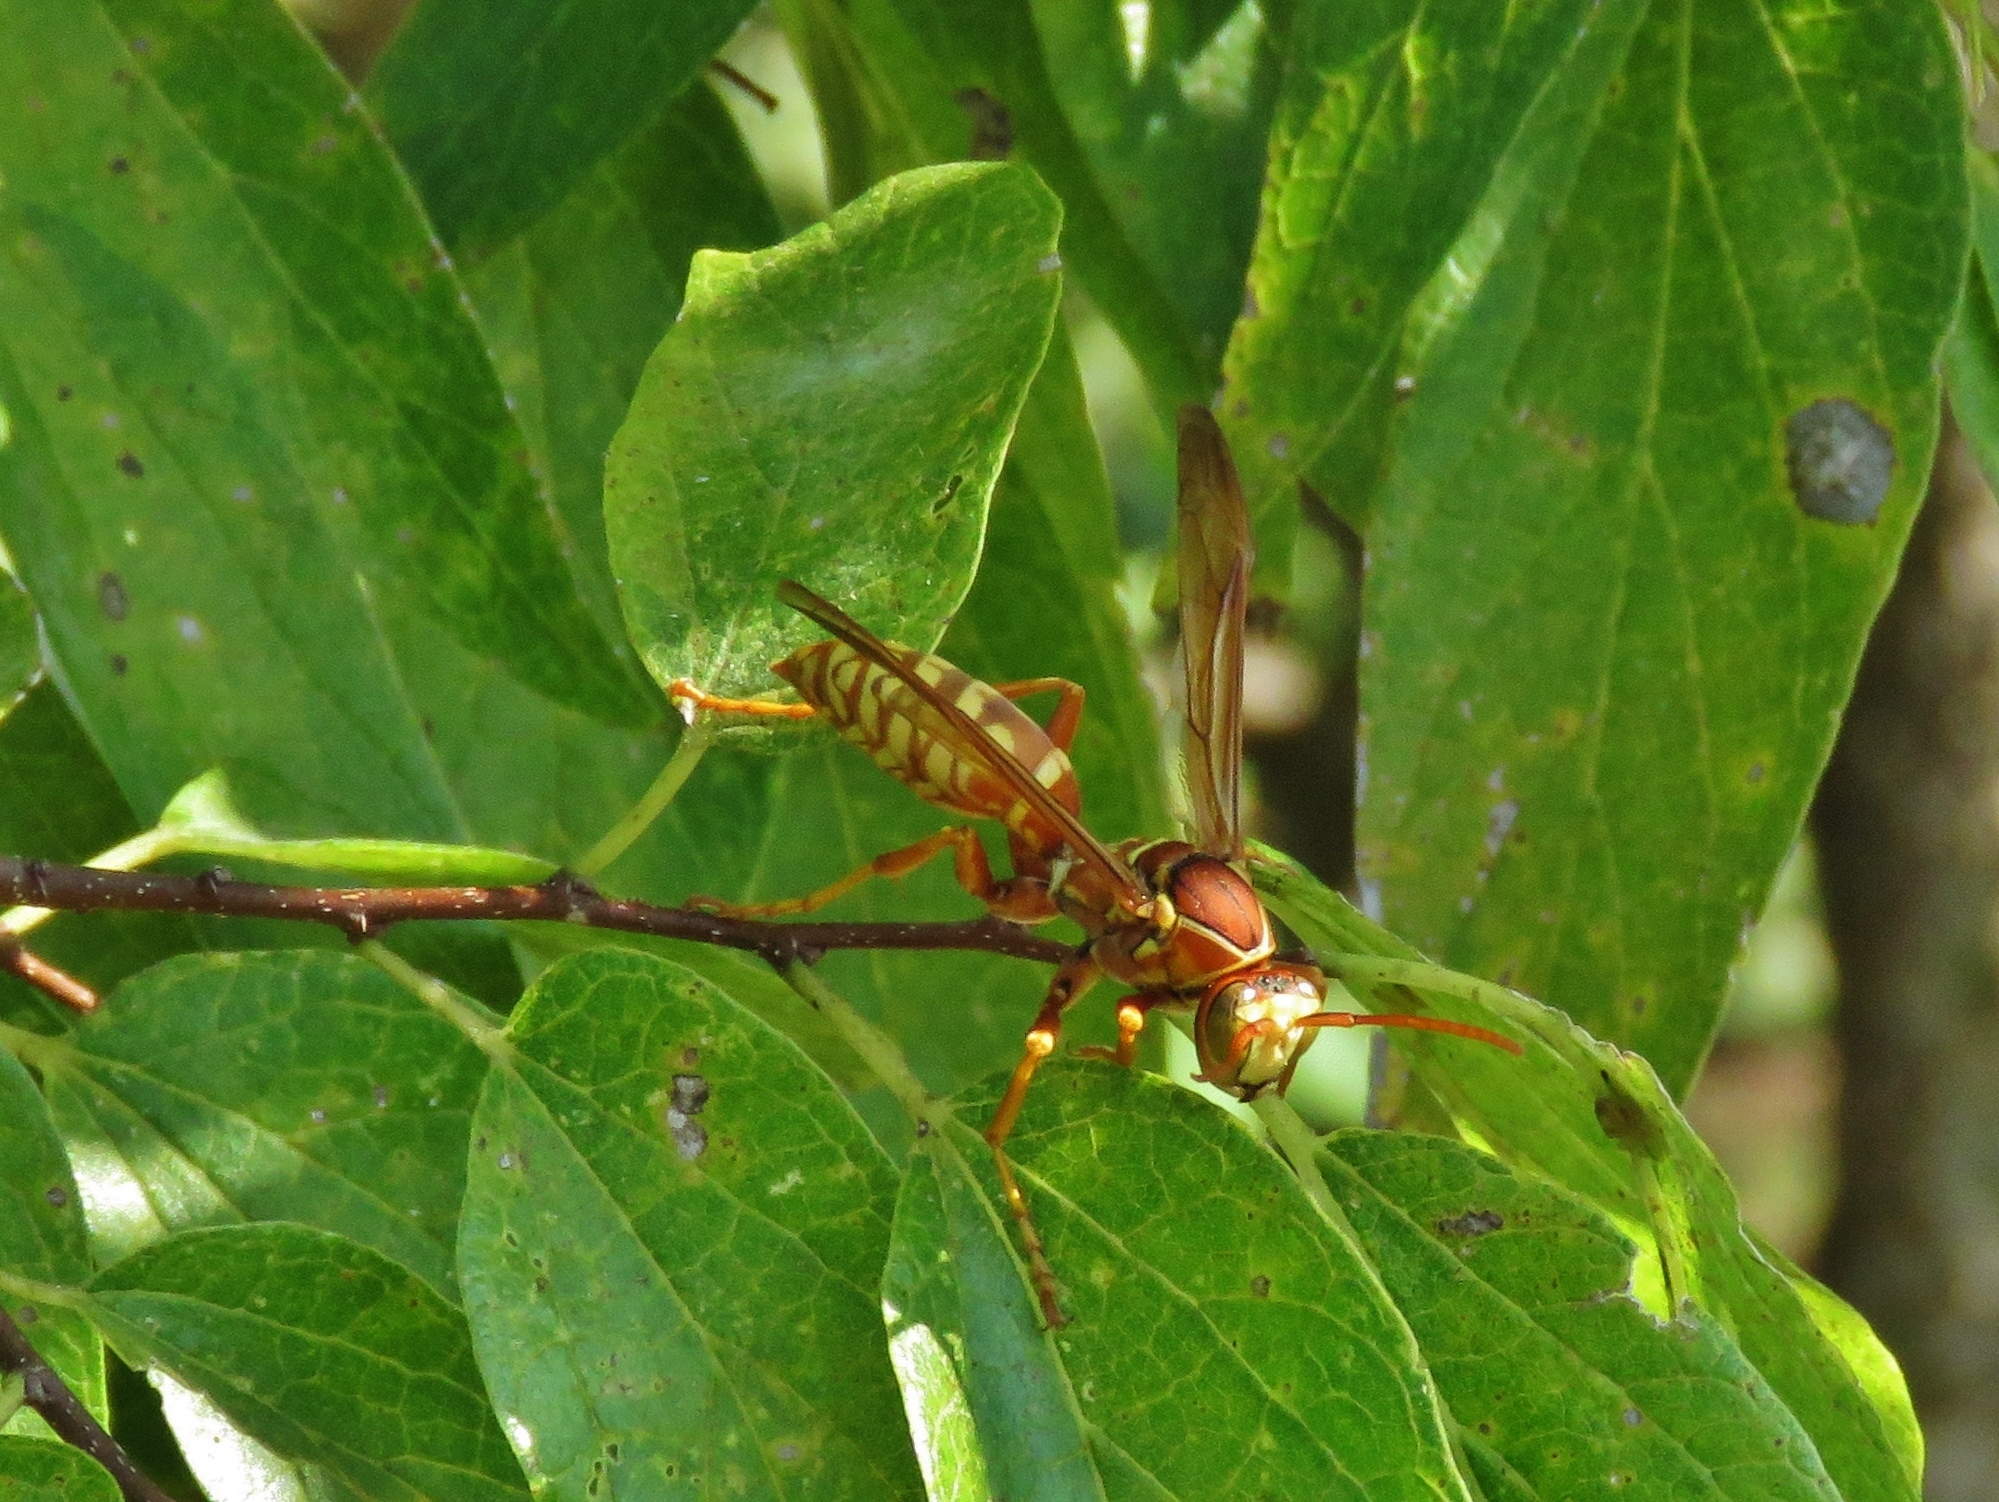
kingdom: Animalia
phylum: Arthropoda
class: Insecta
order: Hymenoptera
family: Eumenidae
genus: Polistes
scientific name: Polistes apachus
